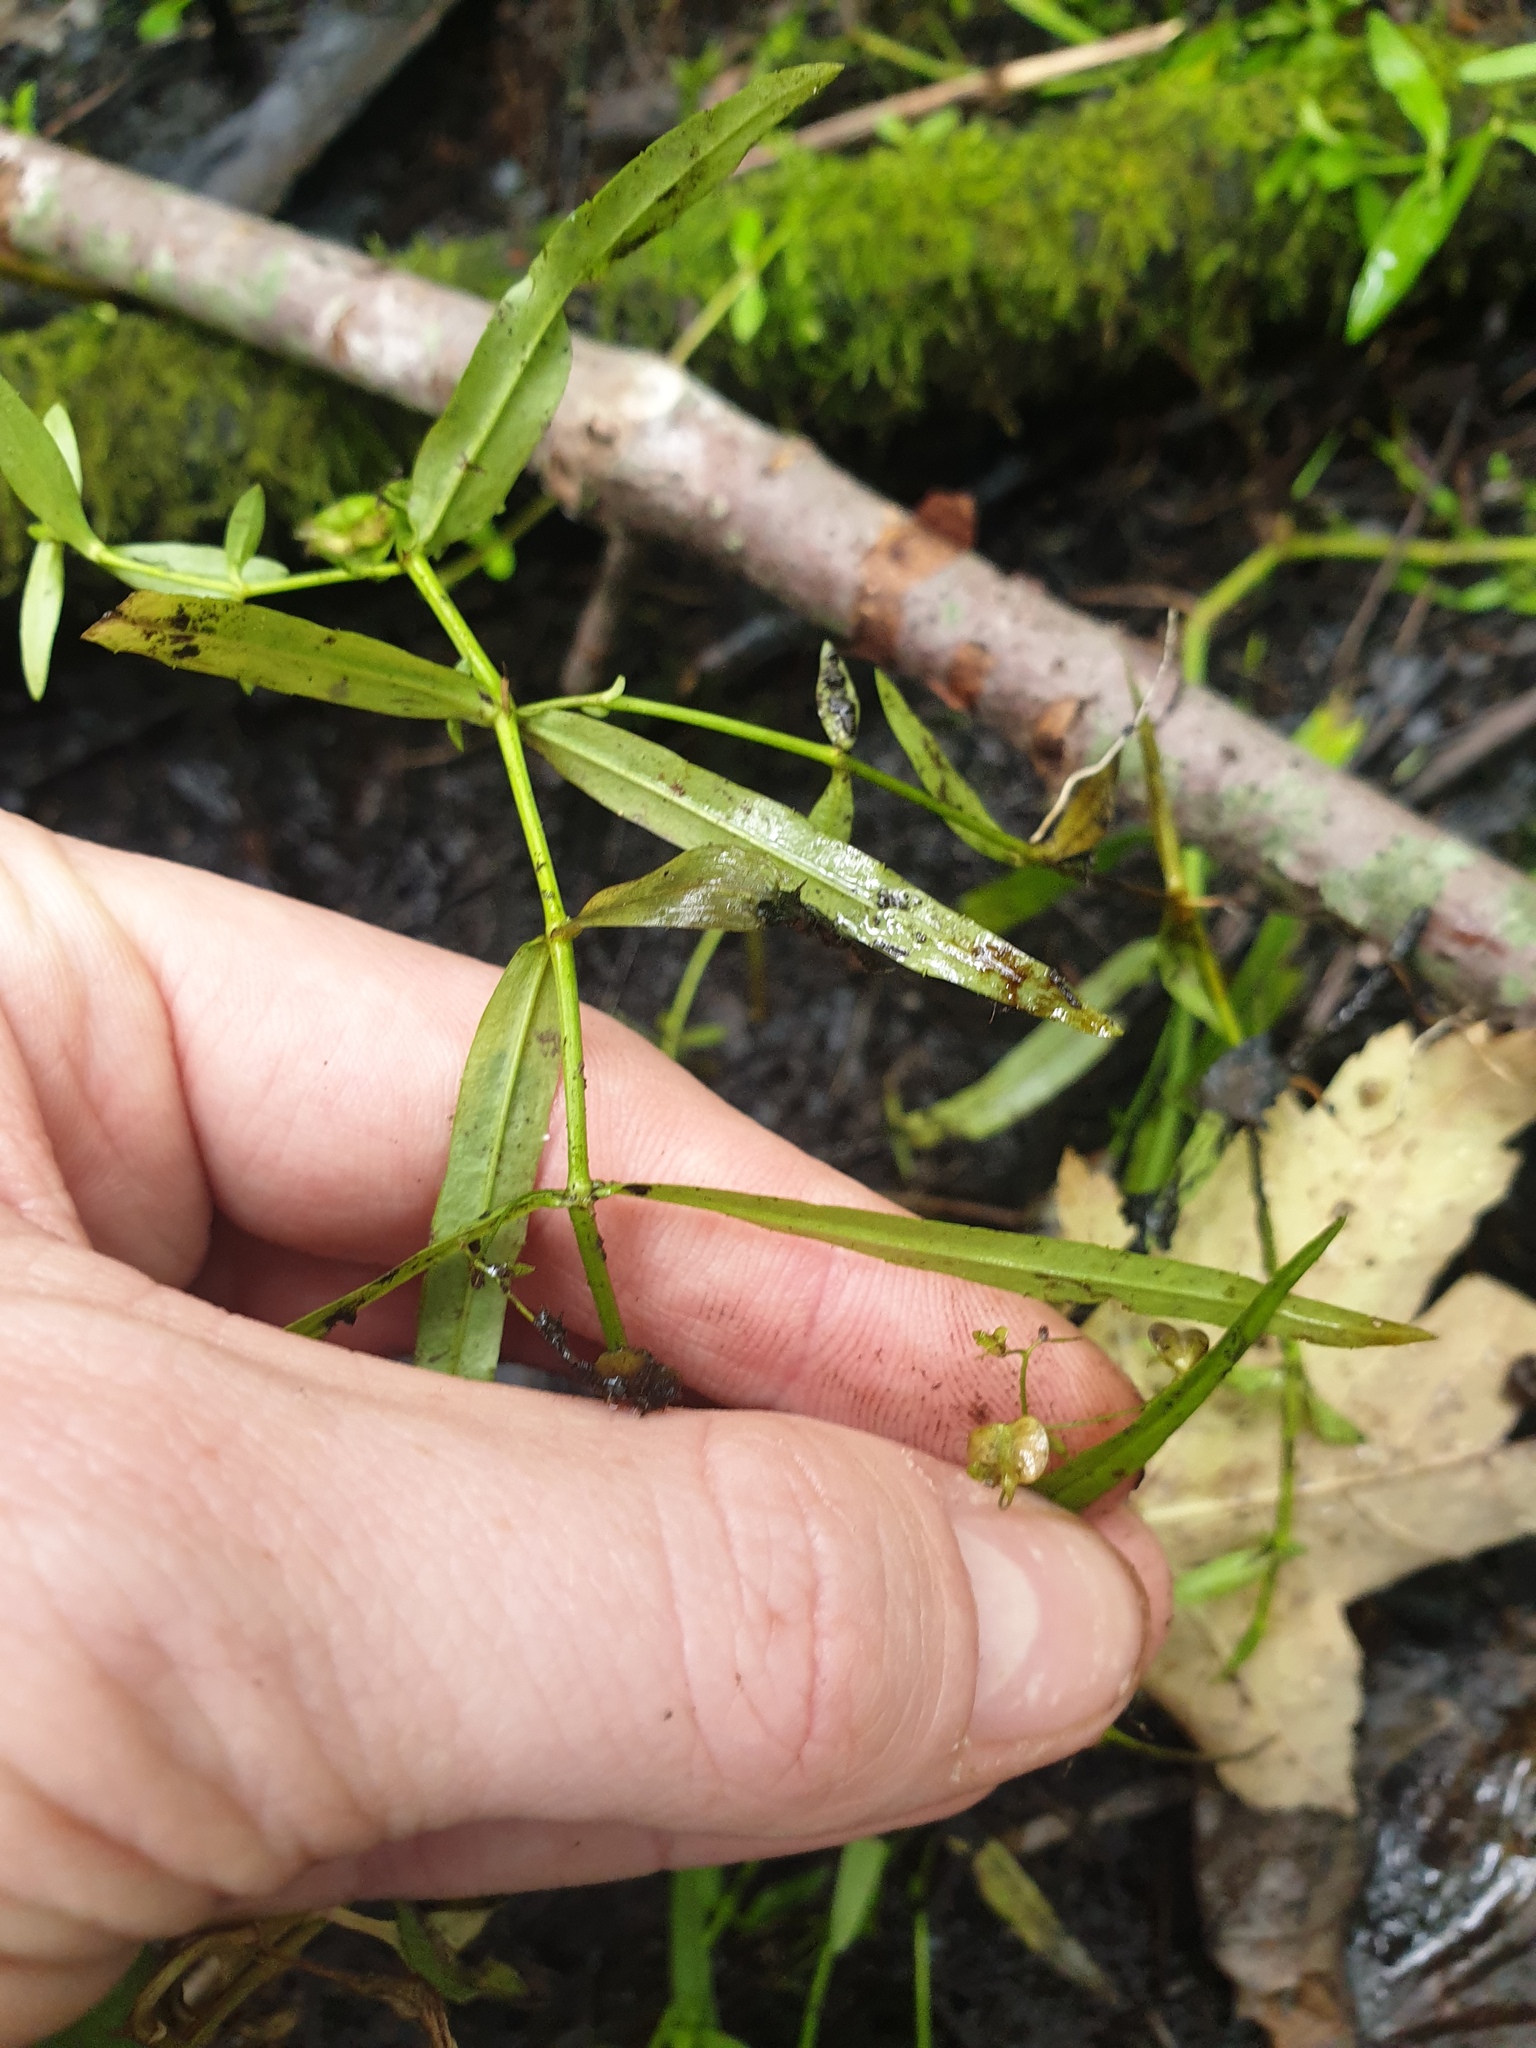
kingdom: Plantae
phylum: Tracheophyta
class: Magnoliopsida
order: Lamiales
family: Plantaginaceae
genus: Veronica
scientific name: Veronica scutellata
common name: Marsh speedwell
